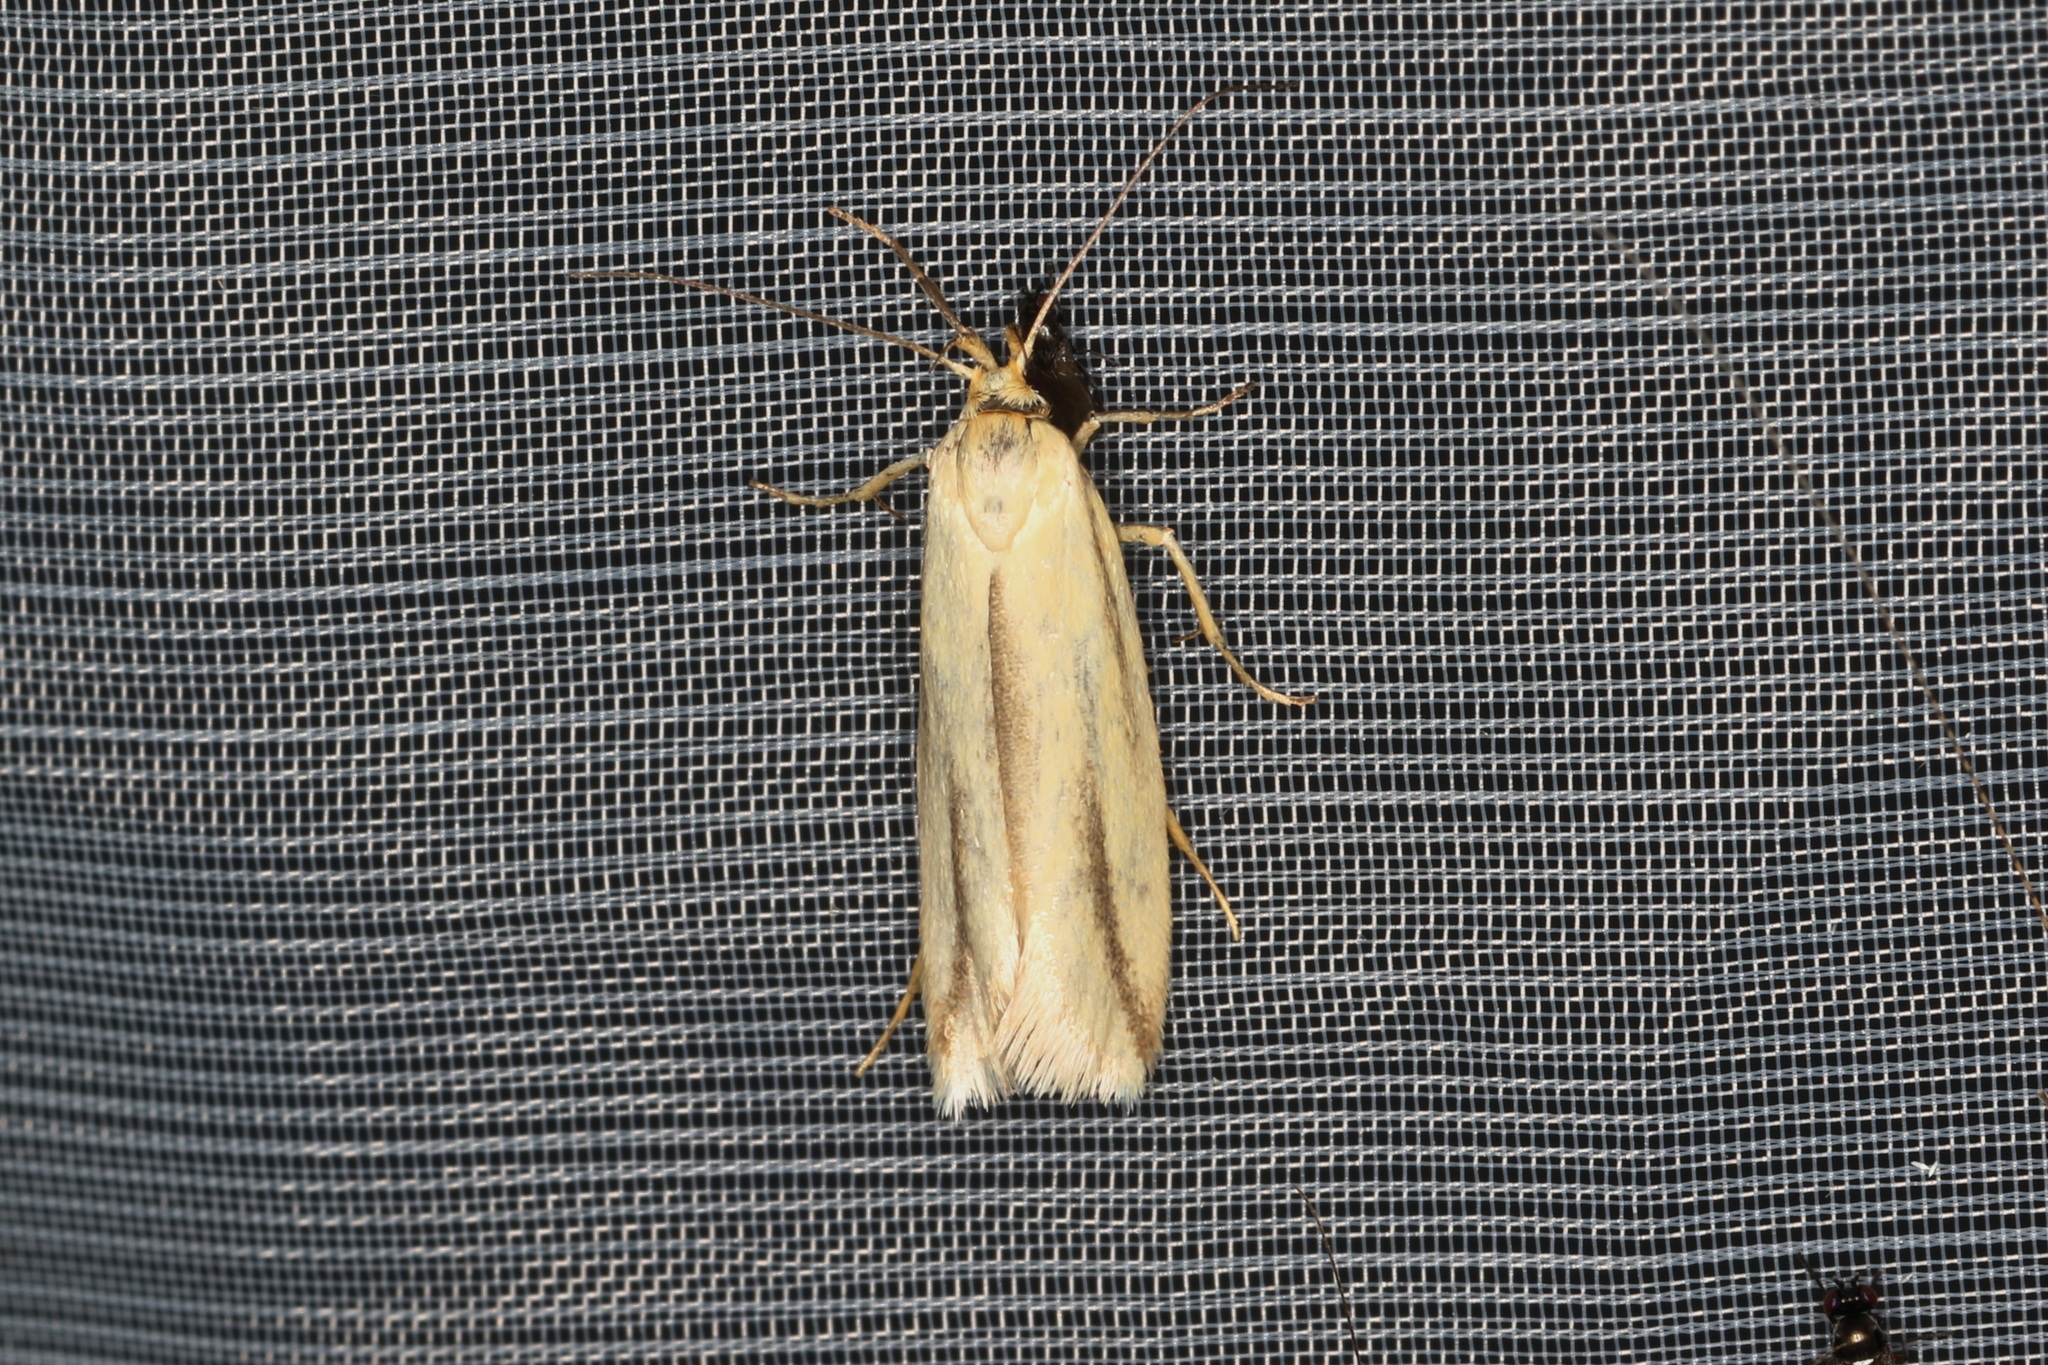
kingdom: Animalia
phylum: Arthropoda
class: Insecta
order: Lepidoptera
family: Oecophoridae
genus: Corynotricha
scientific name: Corynotricha antipodella
